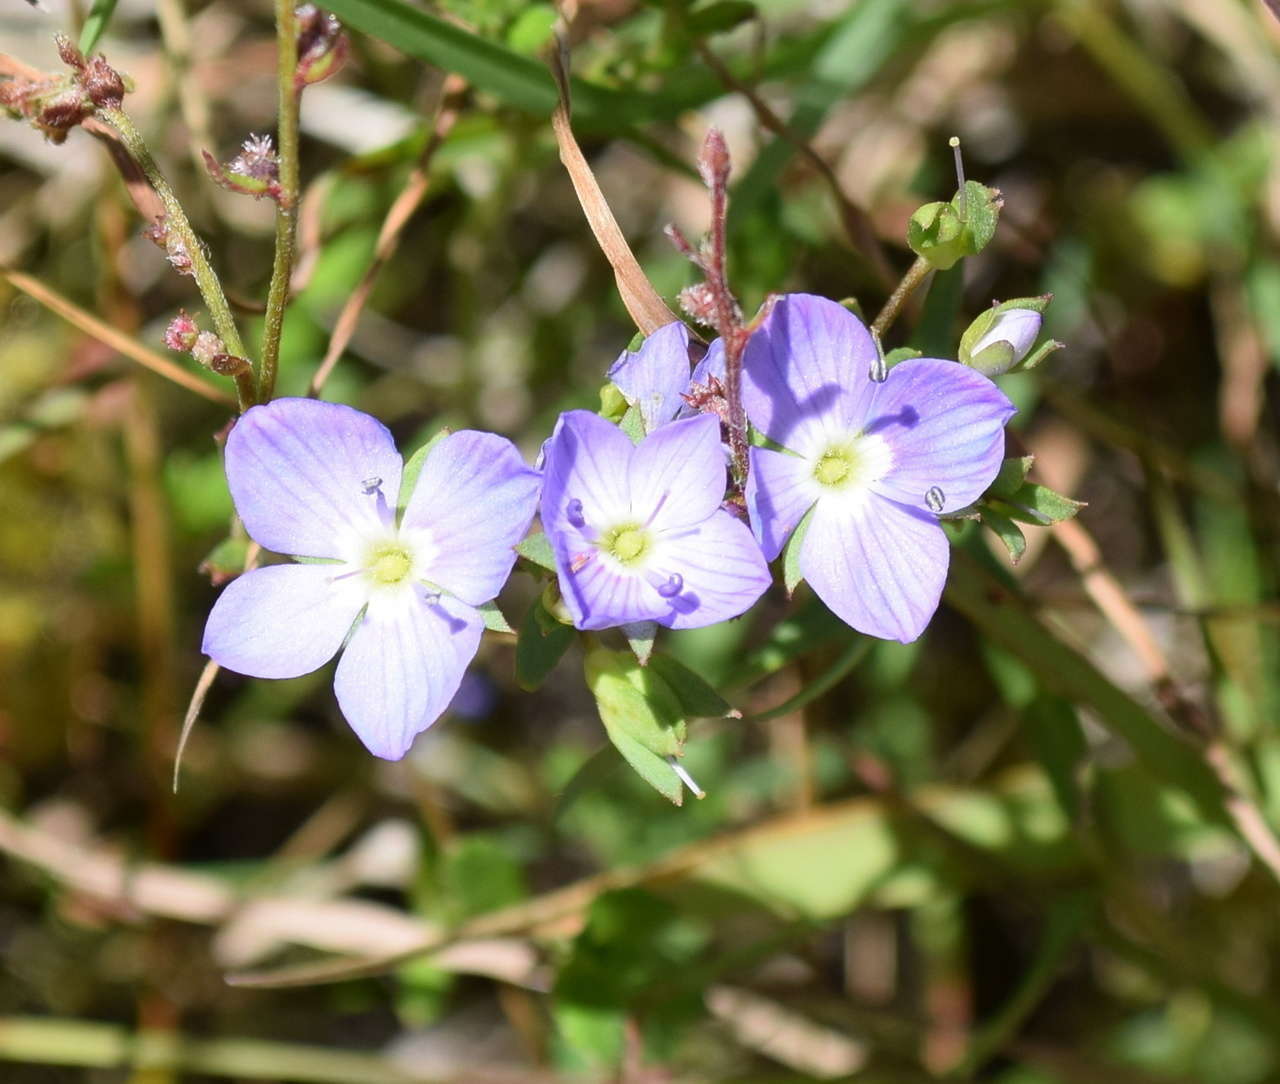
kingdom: Plantae
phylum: Tracheophyta
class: Magnoliopsida
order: Lamiales
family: Plantaginaceae
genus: Veronica
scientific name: Veronica gracilis
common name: Slender speedwell
